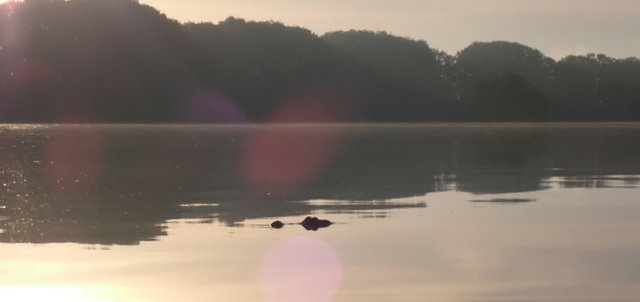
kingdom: Animalia
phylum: Chordata
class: Crocodylia
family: Alligatoridae
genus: Alligator
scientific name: Alligator mississippiensis
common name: American alligator
